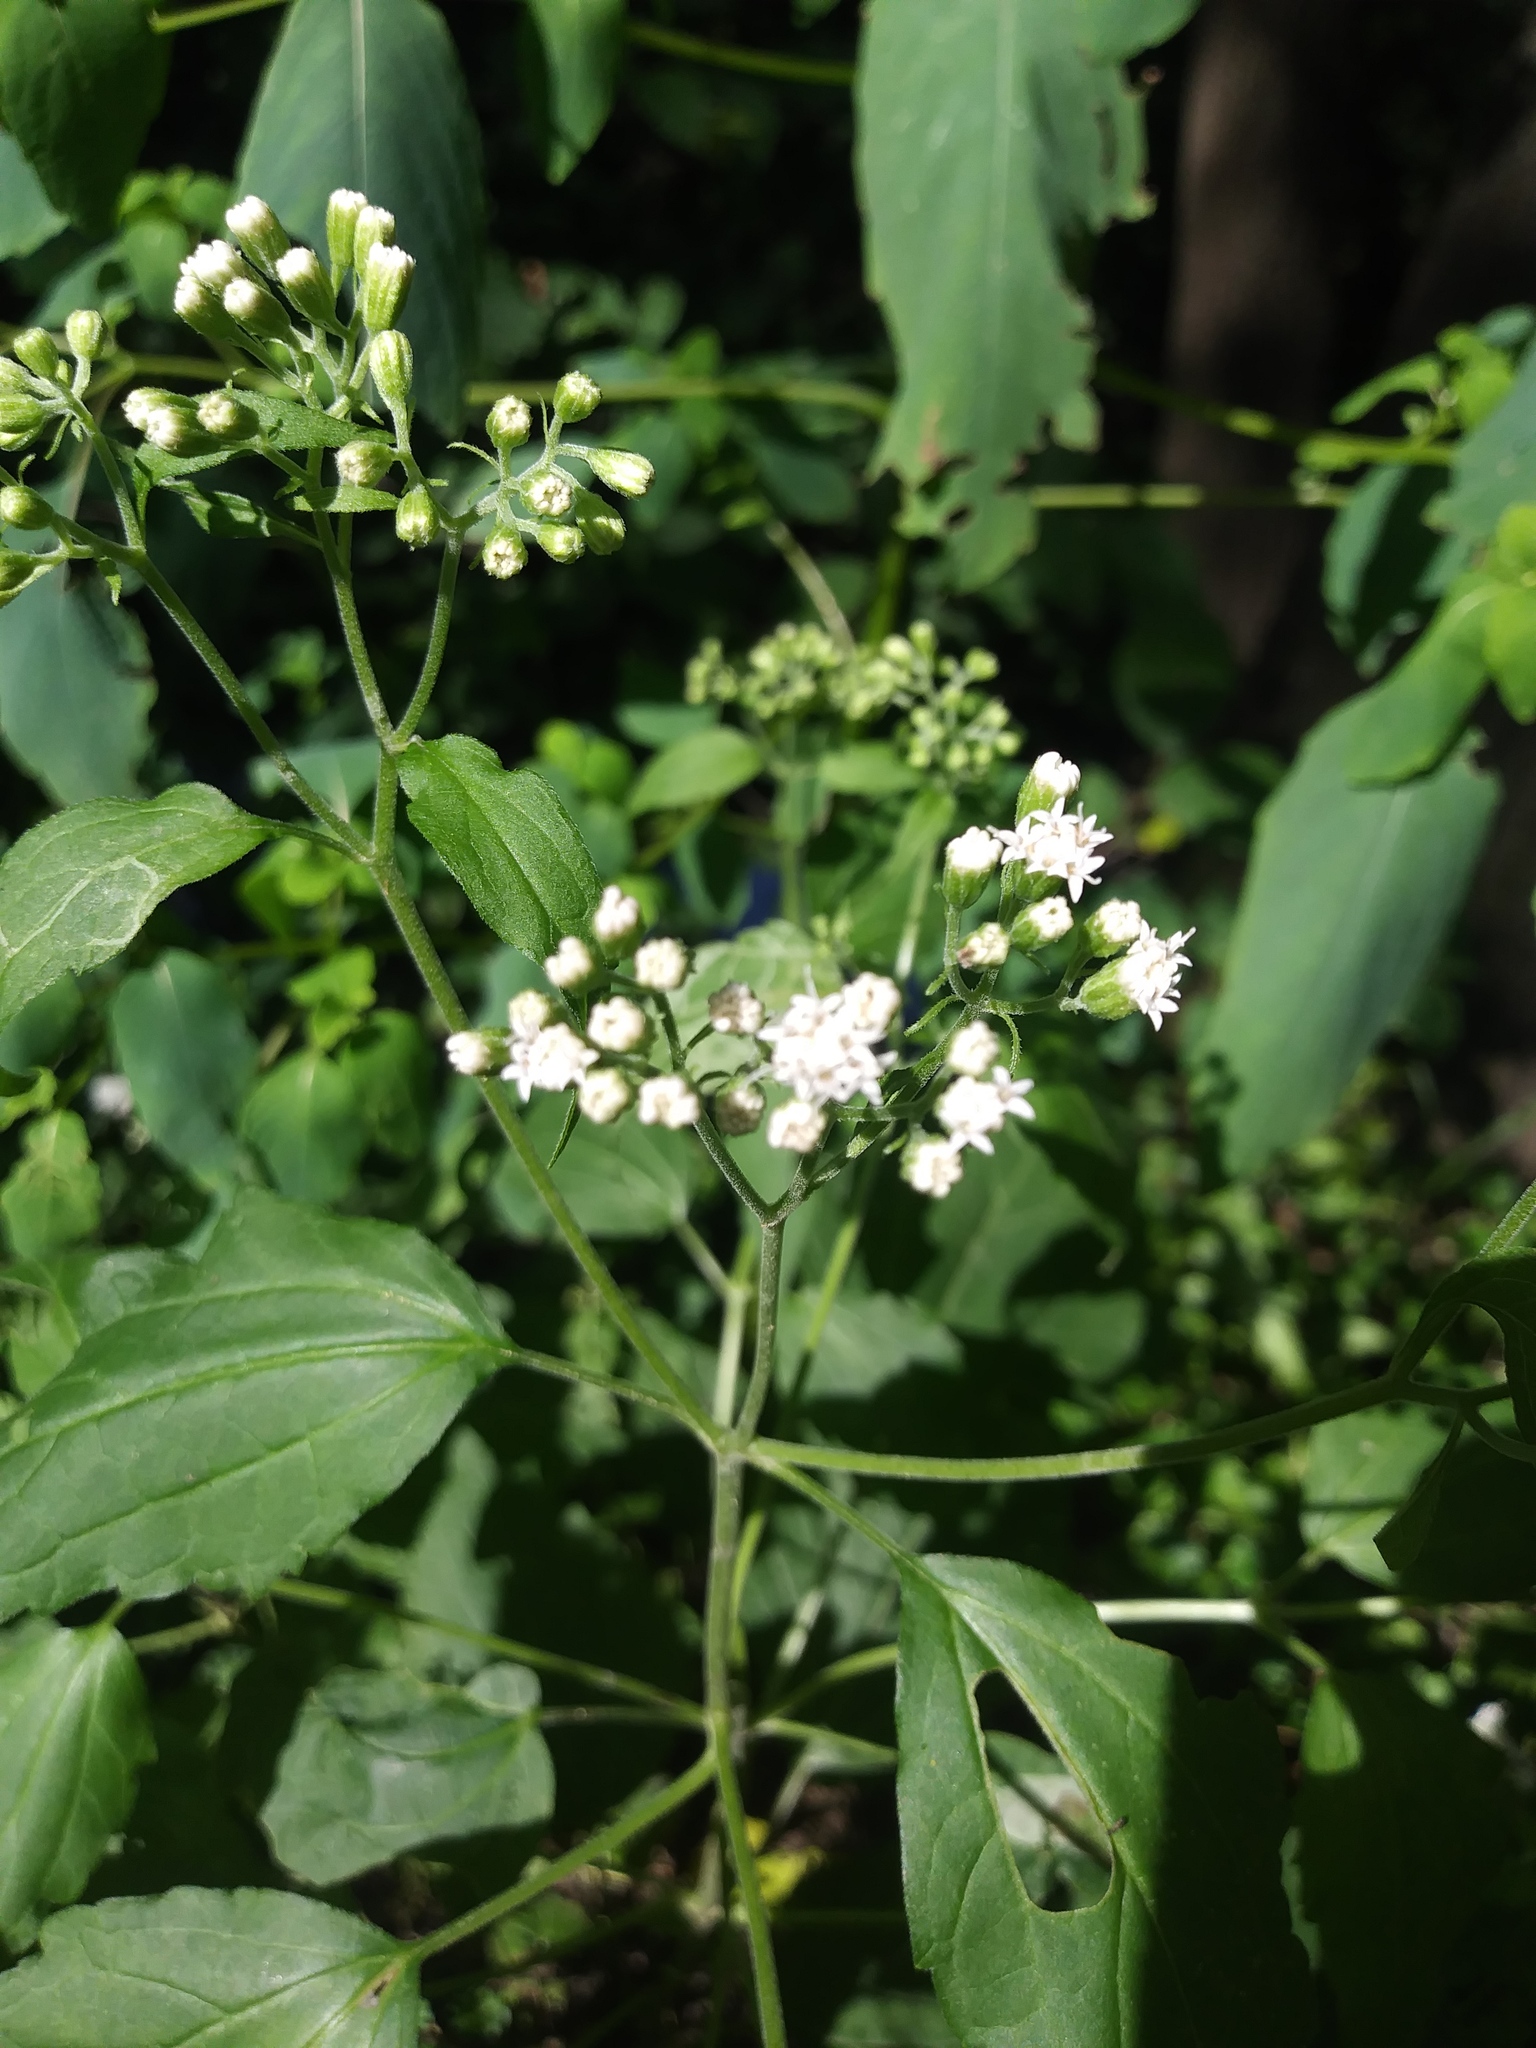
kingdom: Plantae
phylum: Tracheophyta
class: Magnoliopsida
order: Asterales
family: Asteraceae
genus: Ageratina
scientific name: Ageratina altissima
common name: White snakeroot
